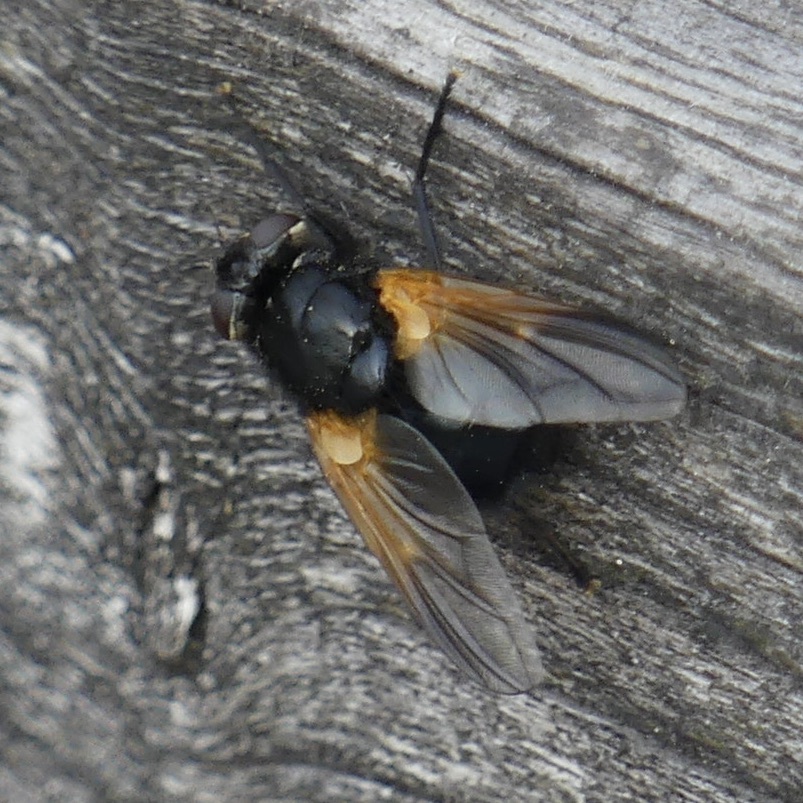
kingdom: Animalia
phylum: Arthropoda
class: Insecta
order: Diptera
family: Muscidae
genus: Mesembrina
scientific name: Mesembrina meridiana
